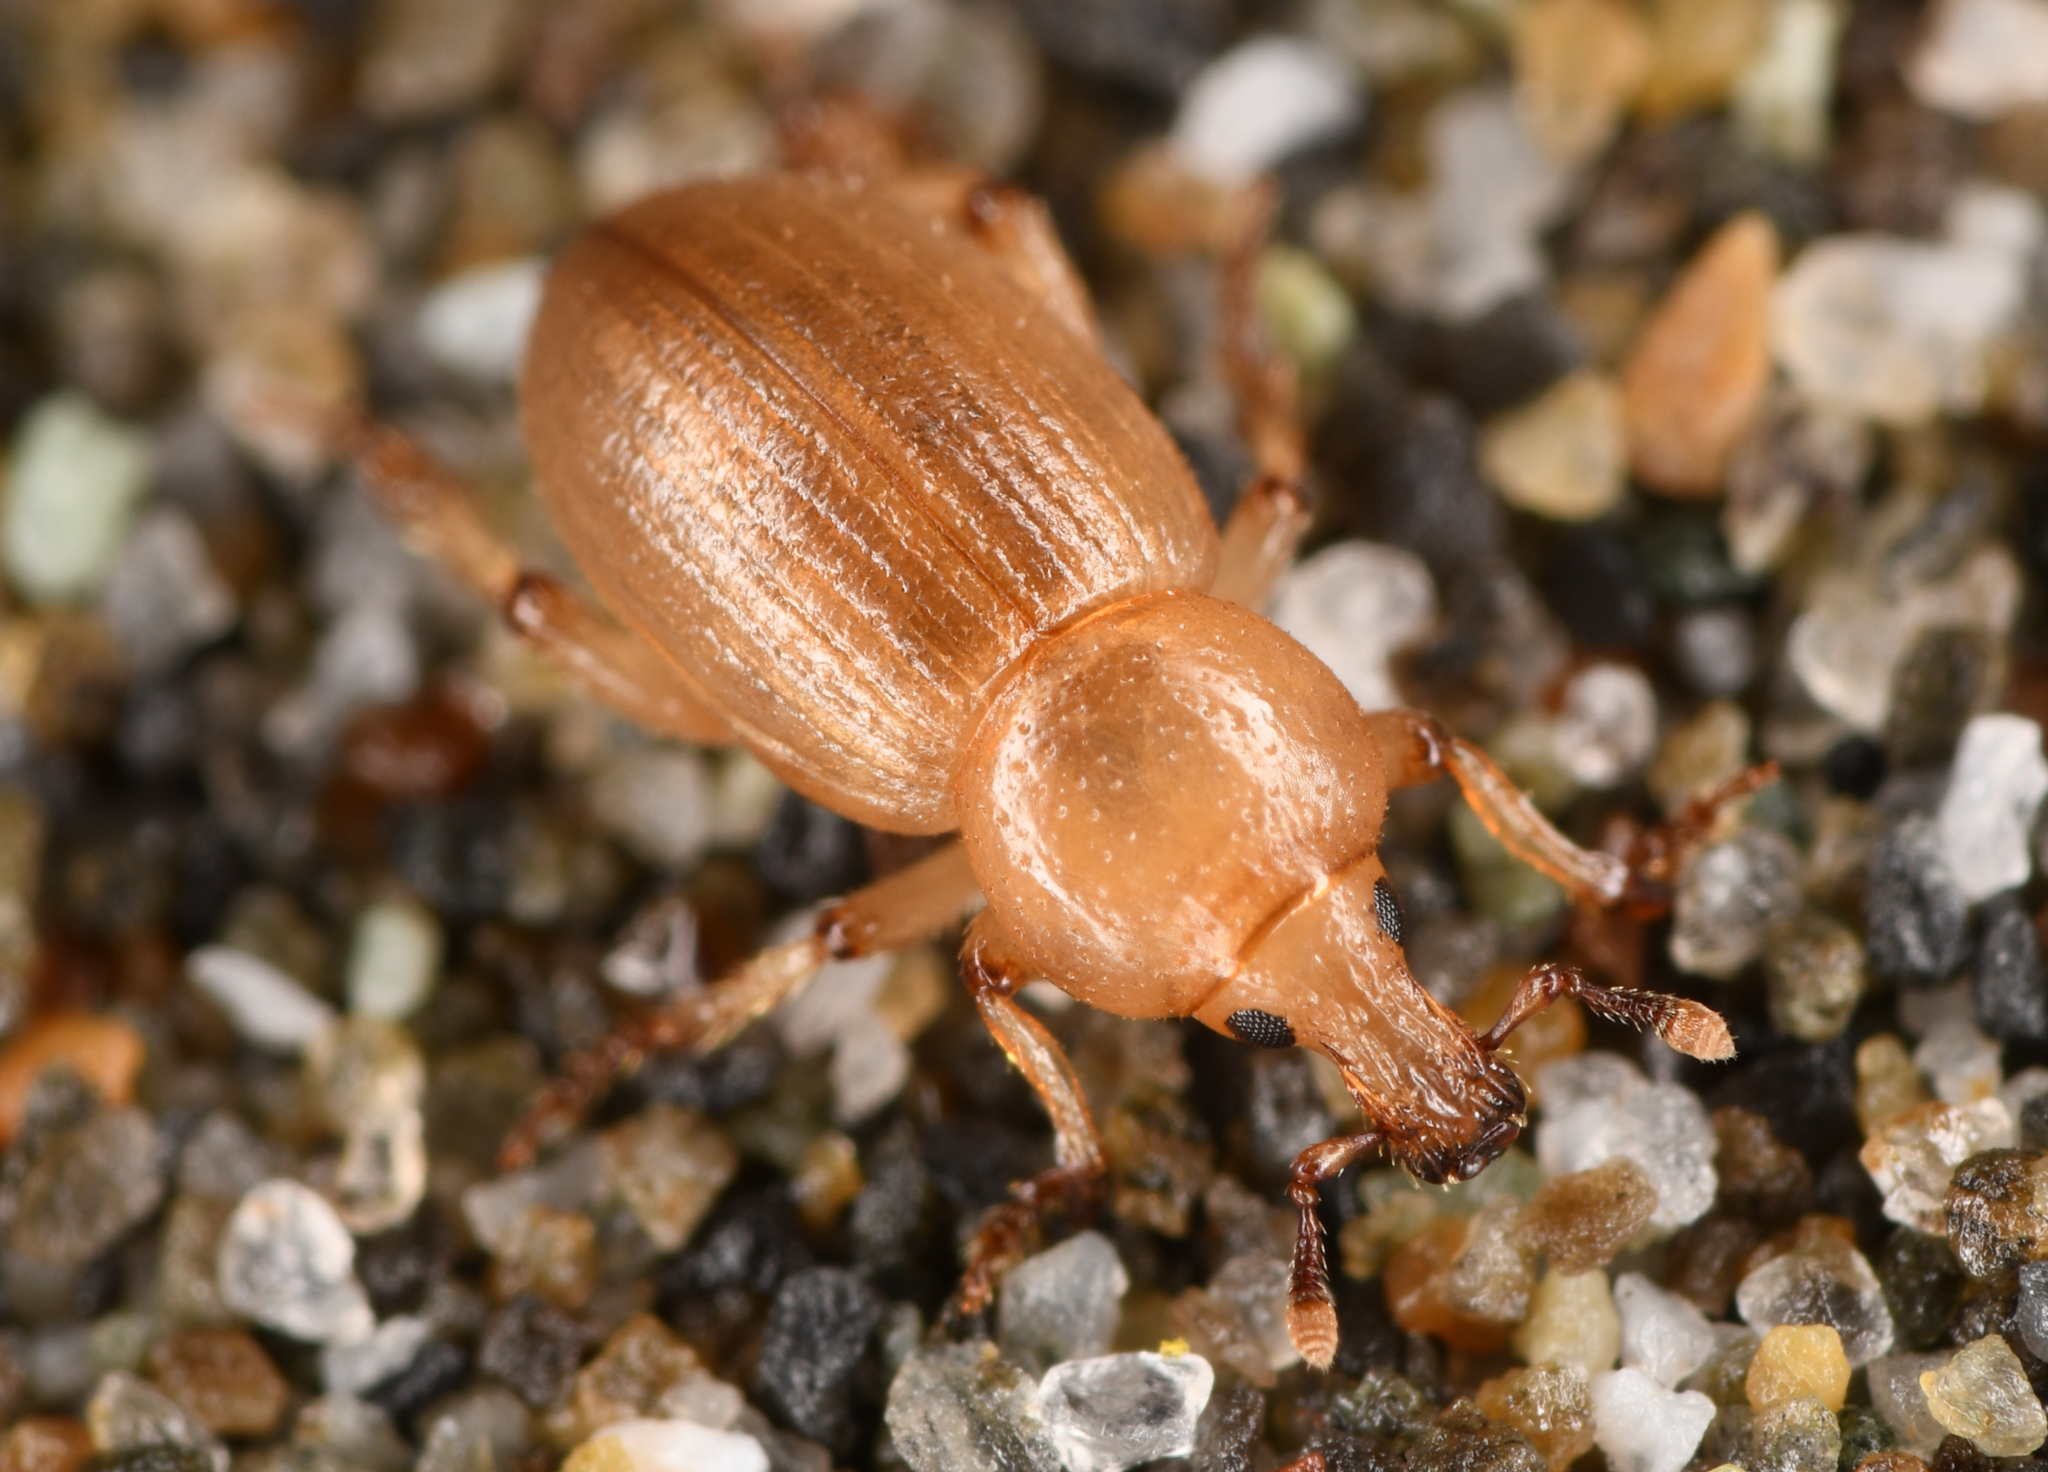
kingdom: Animalia
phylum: Arthropoda
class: Insecta
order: Coleoptera
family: Curculionidae
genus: Emphyastes
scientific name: Emphyastes fucicola
